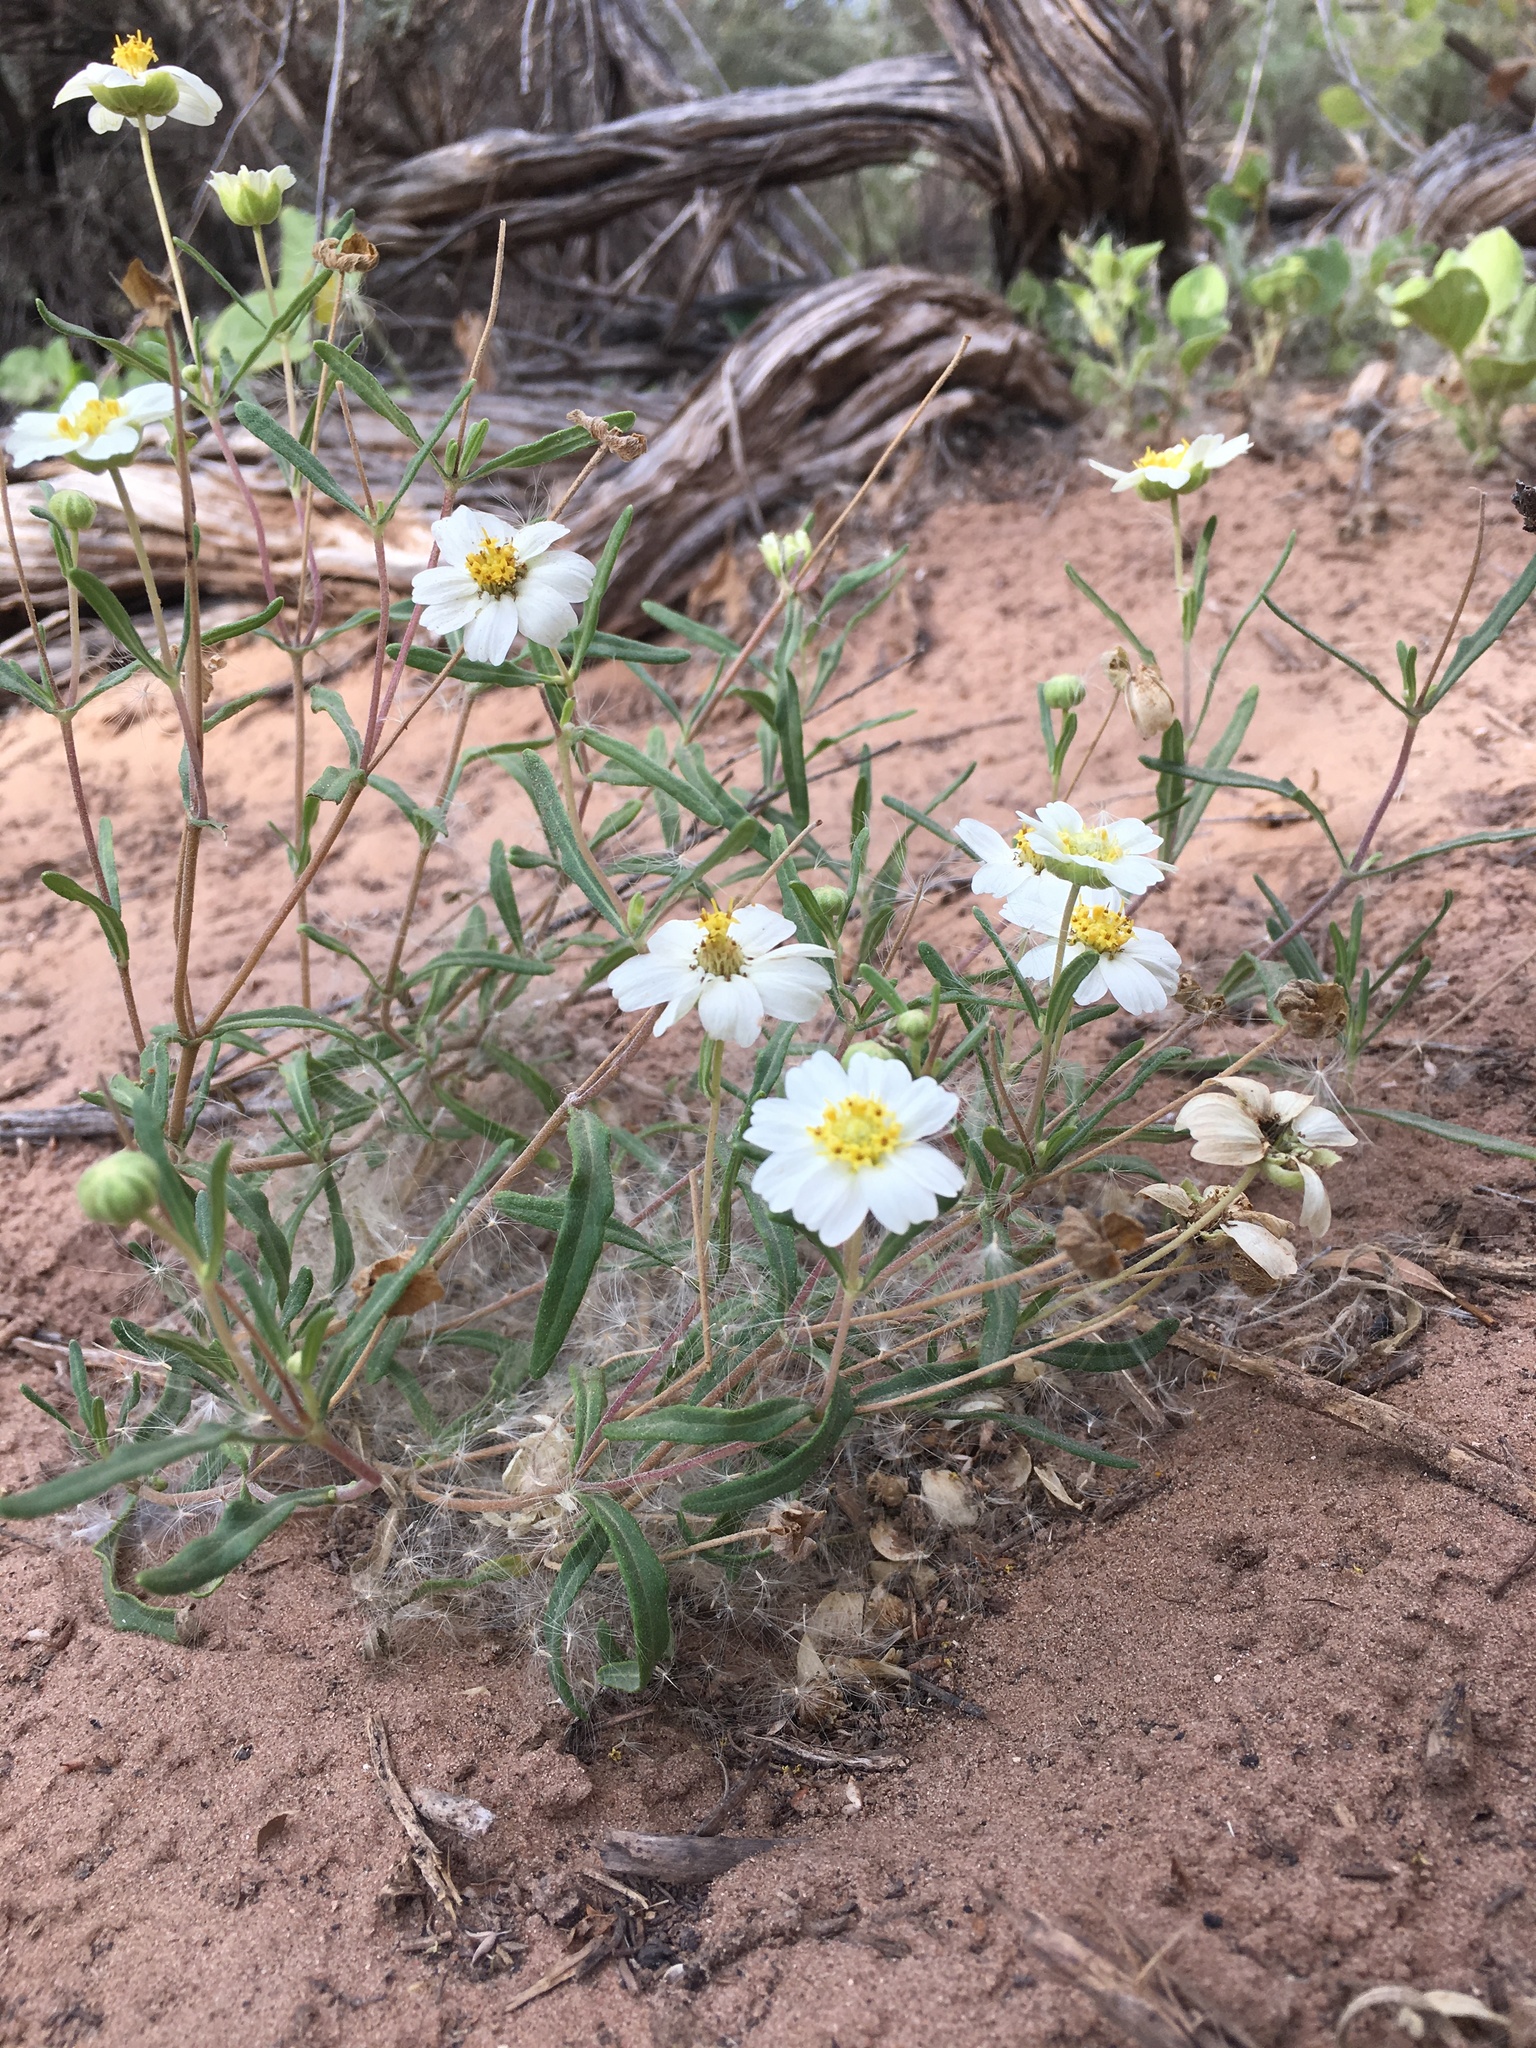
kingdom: Plantae
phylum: Tracheophyta
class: Magnoliopsida
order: Asterales
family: Asteraceae
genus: Melampodium
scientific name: Melampodium leucanthum
